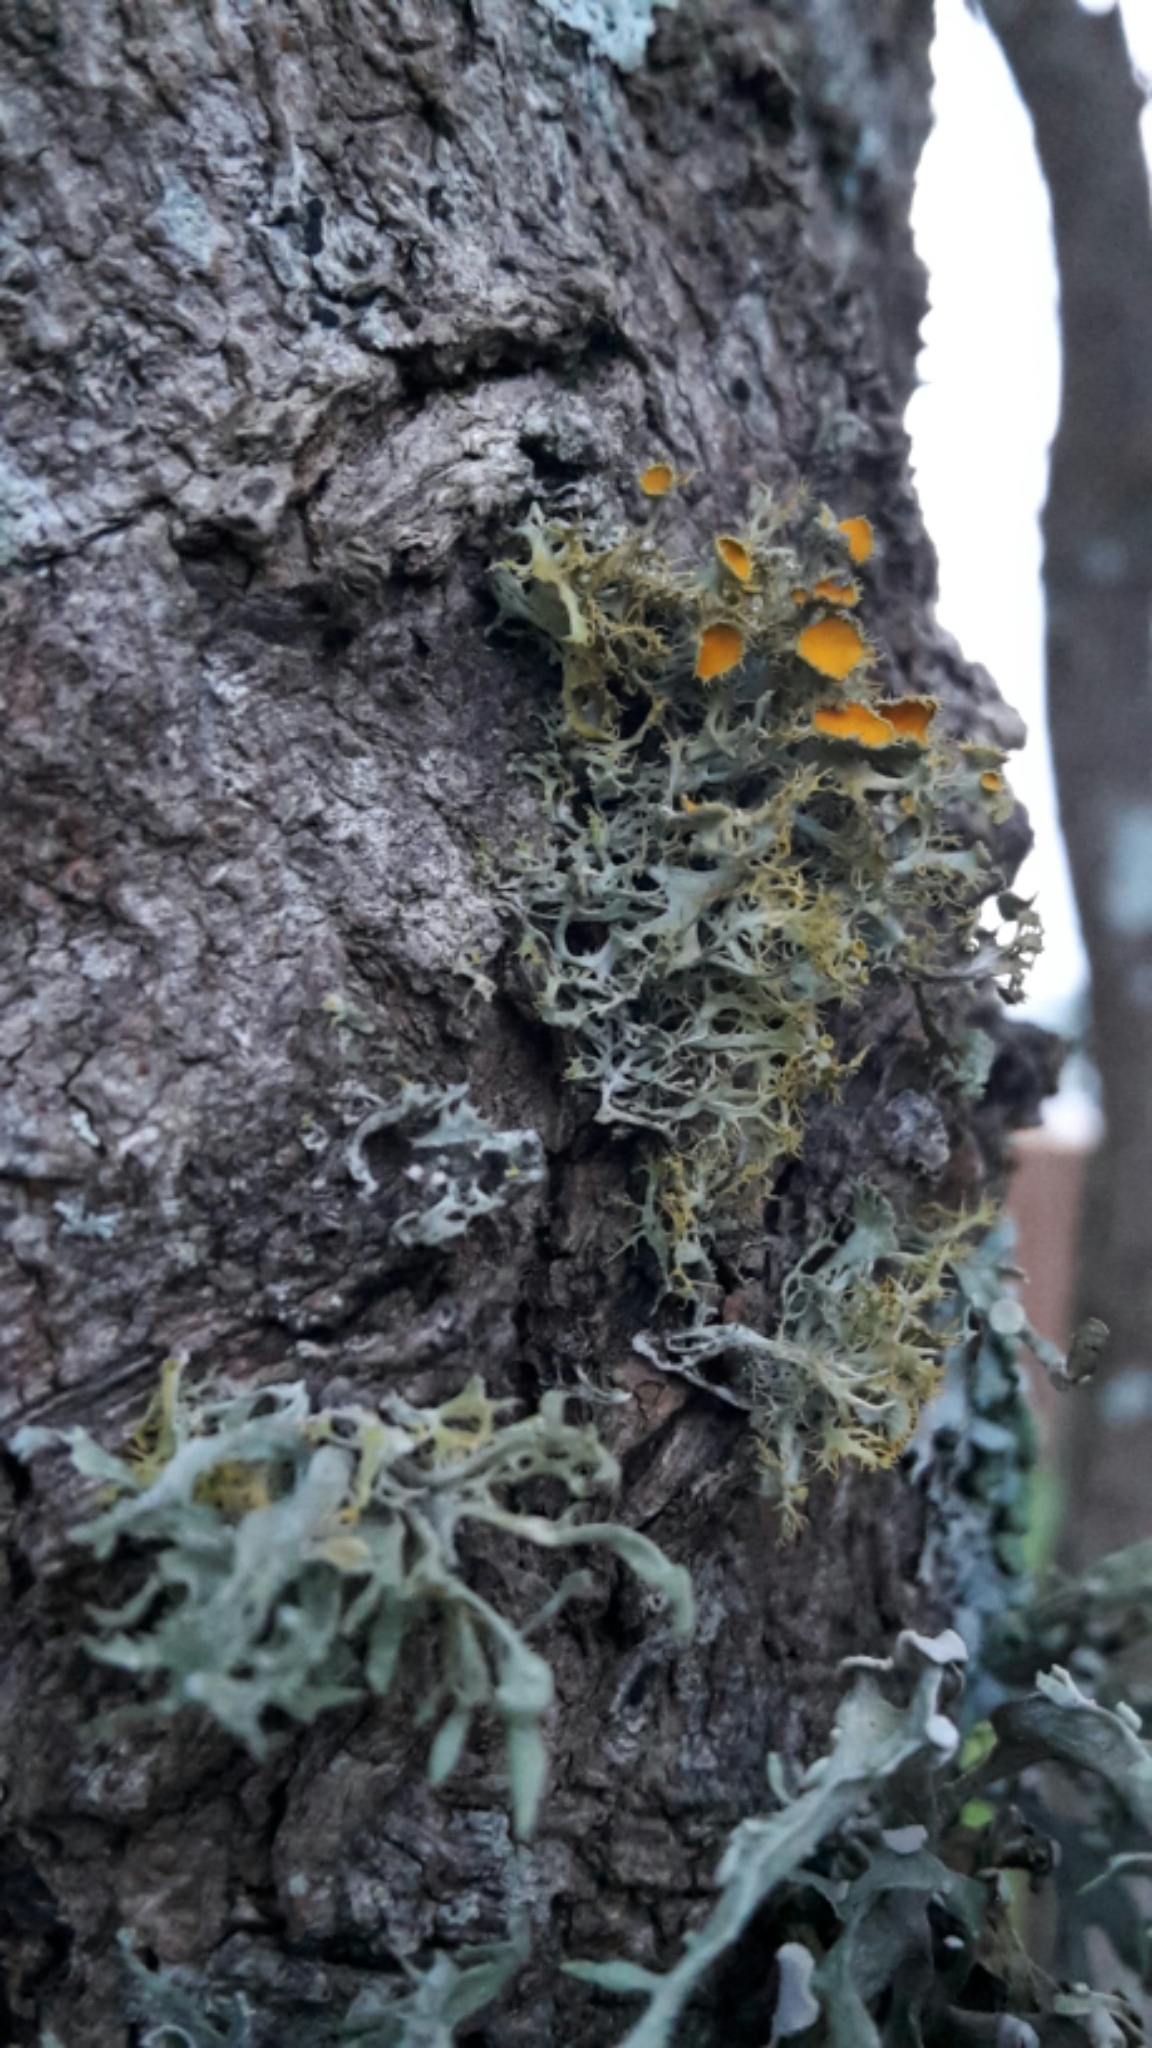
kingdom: Fungi
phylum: Ascomycota
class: Lecanoromycetes
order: Teloschistales
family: Teloschistaceae
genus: Niorma
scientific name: Niorma chrysophthalma
